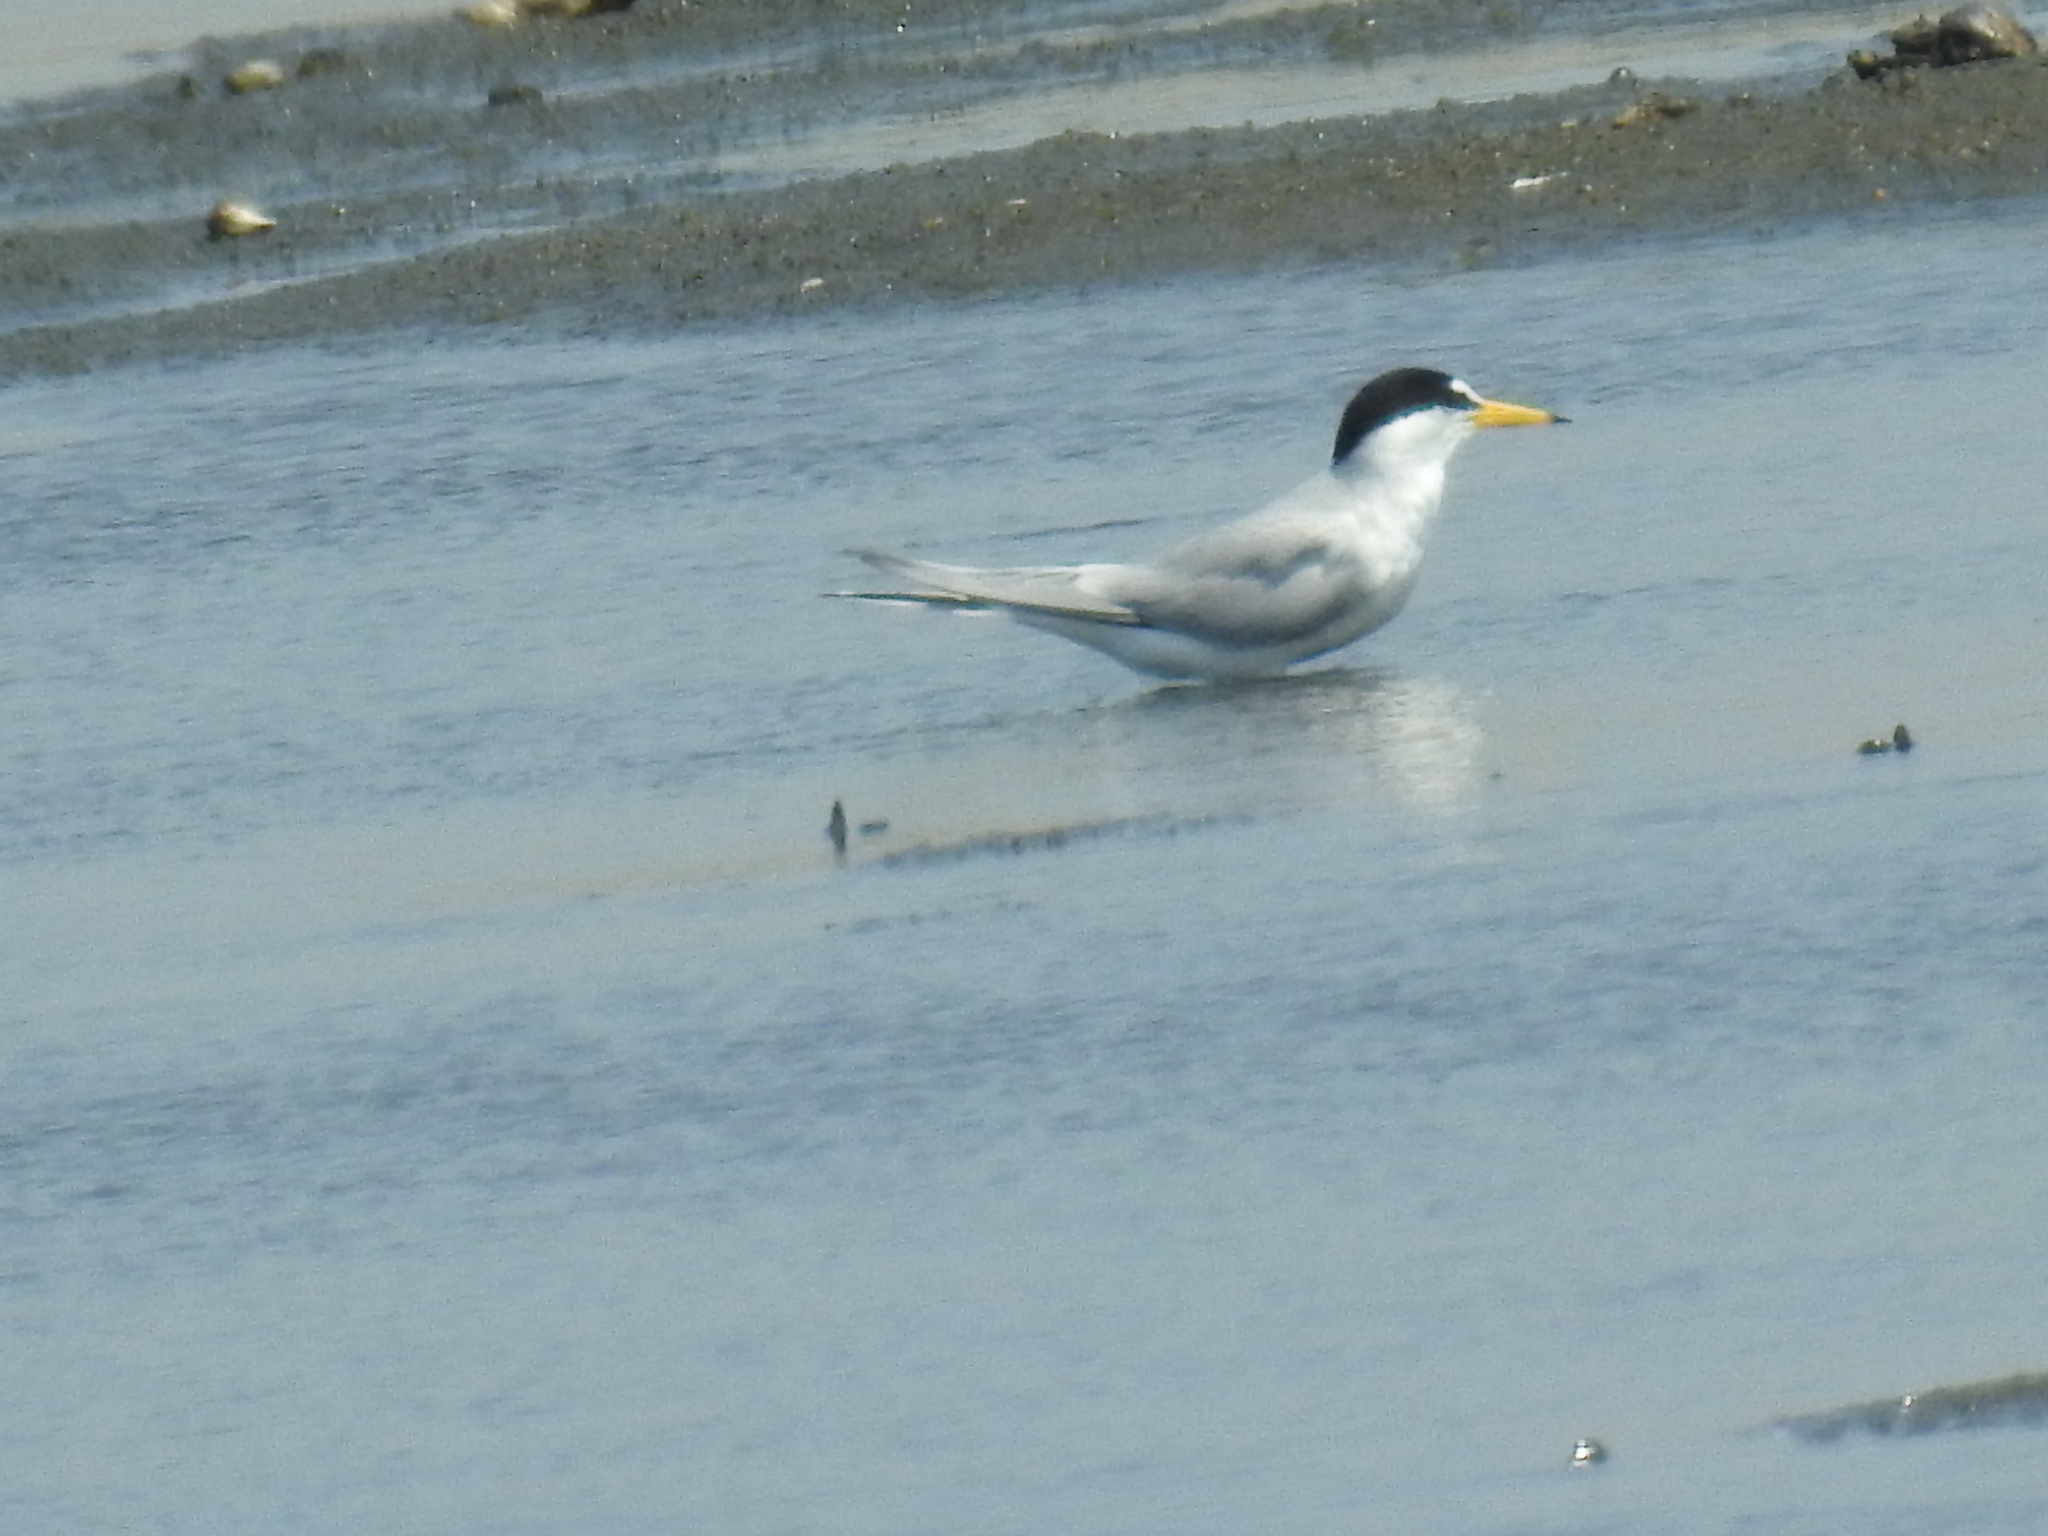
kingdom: Animalia
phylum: Chordata
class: Aves
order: Charadriiformes
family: Laridae
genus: Sternula
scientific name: Sternula albifrons
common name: Little tern
